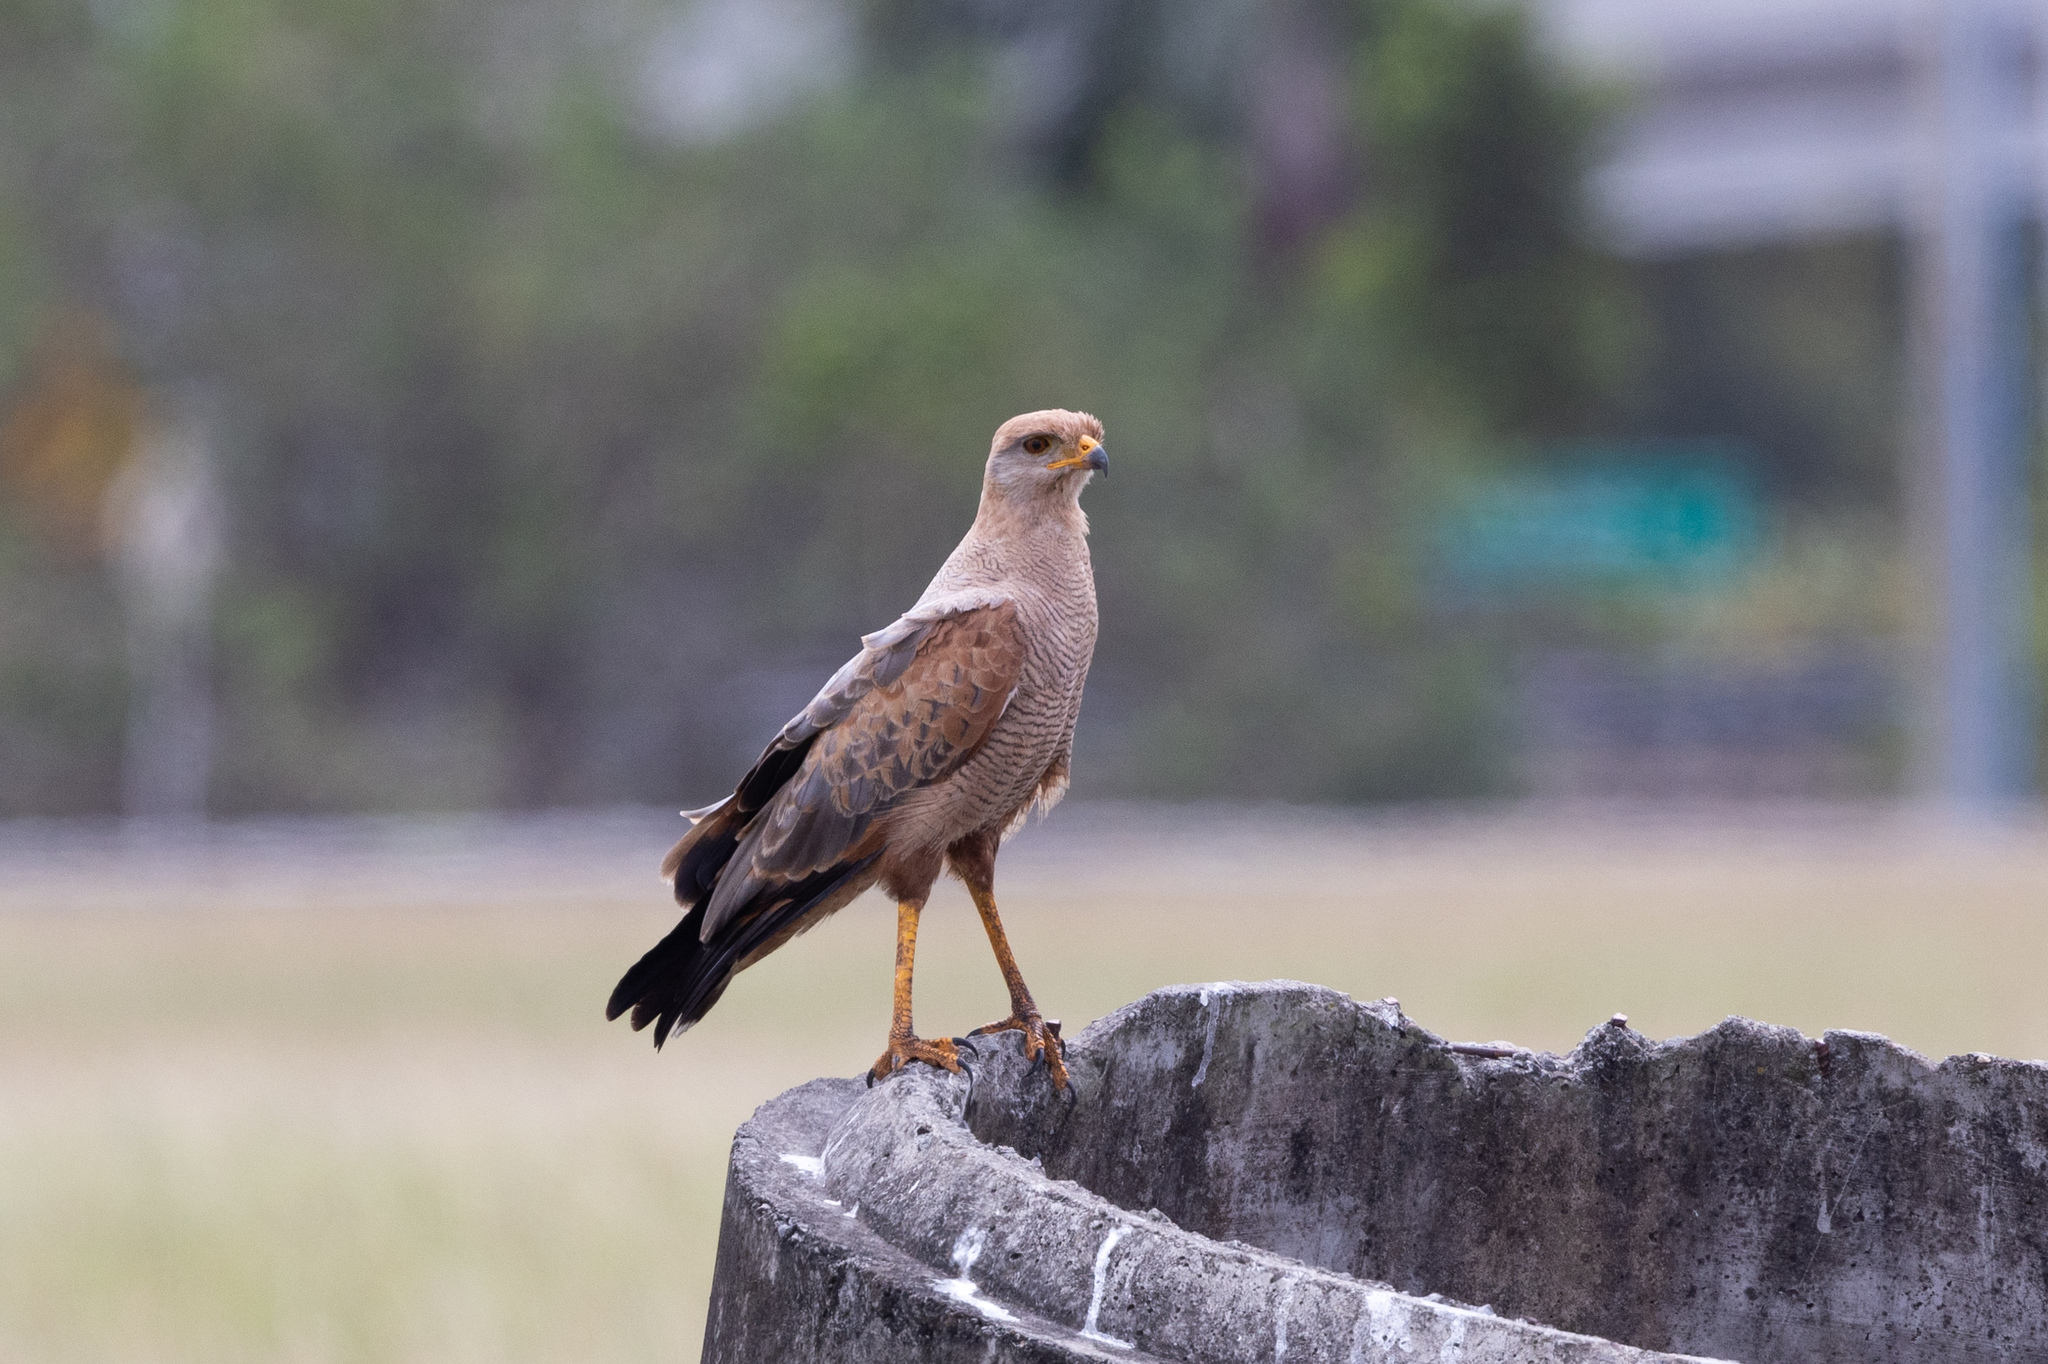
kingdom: Animalia
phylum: Chordata
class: Aves
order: Accipitriformes
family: Accipitridae
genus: Buteogallus
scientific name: Buteogallus meridionalis
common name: Savanna hawk
